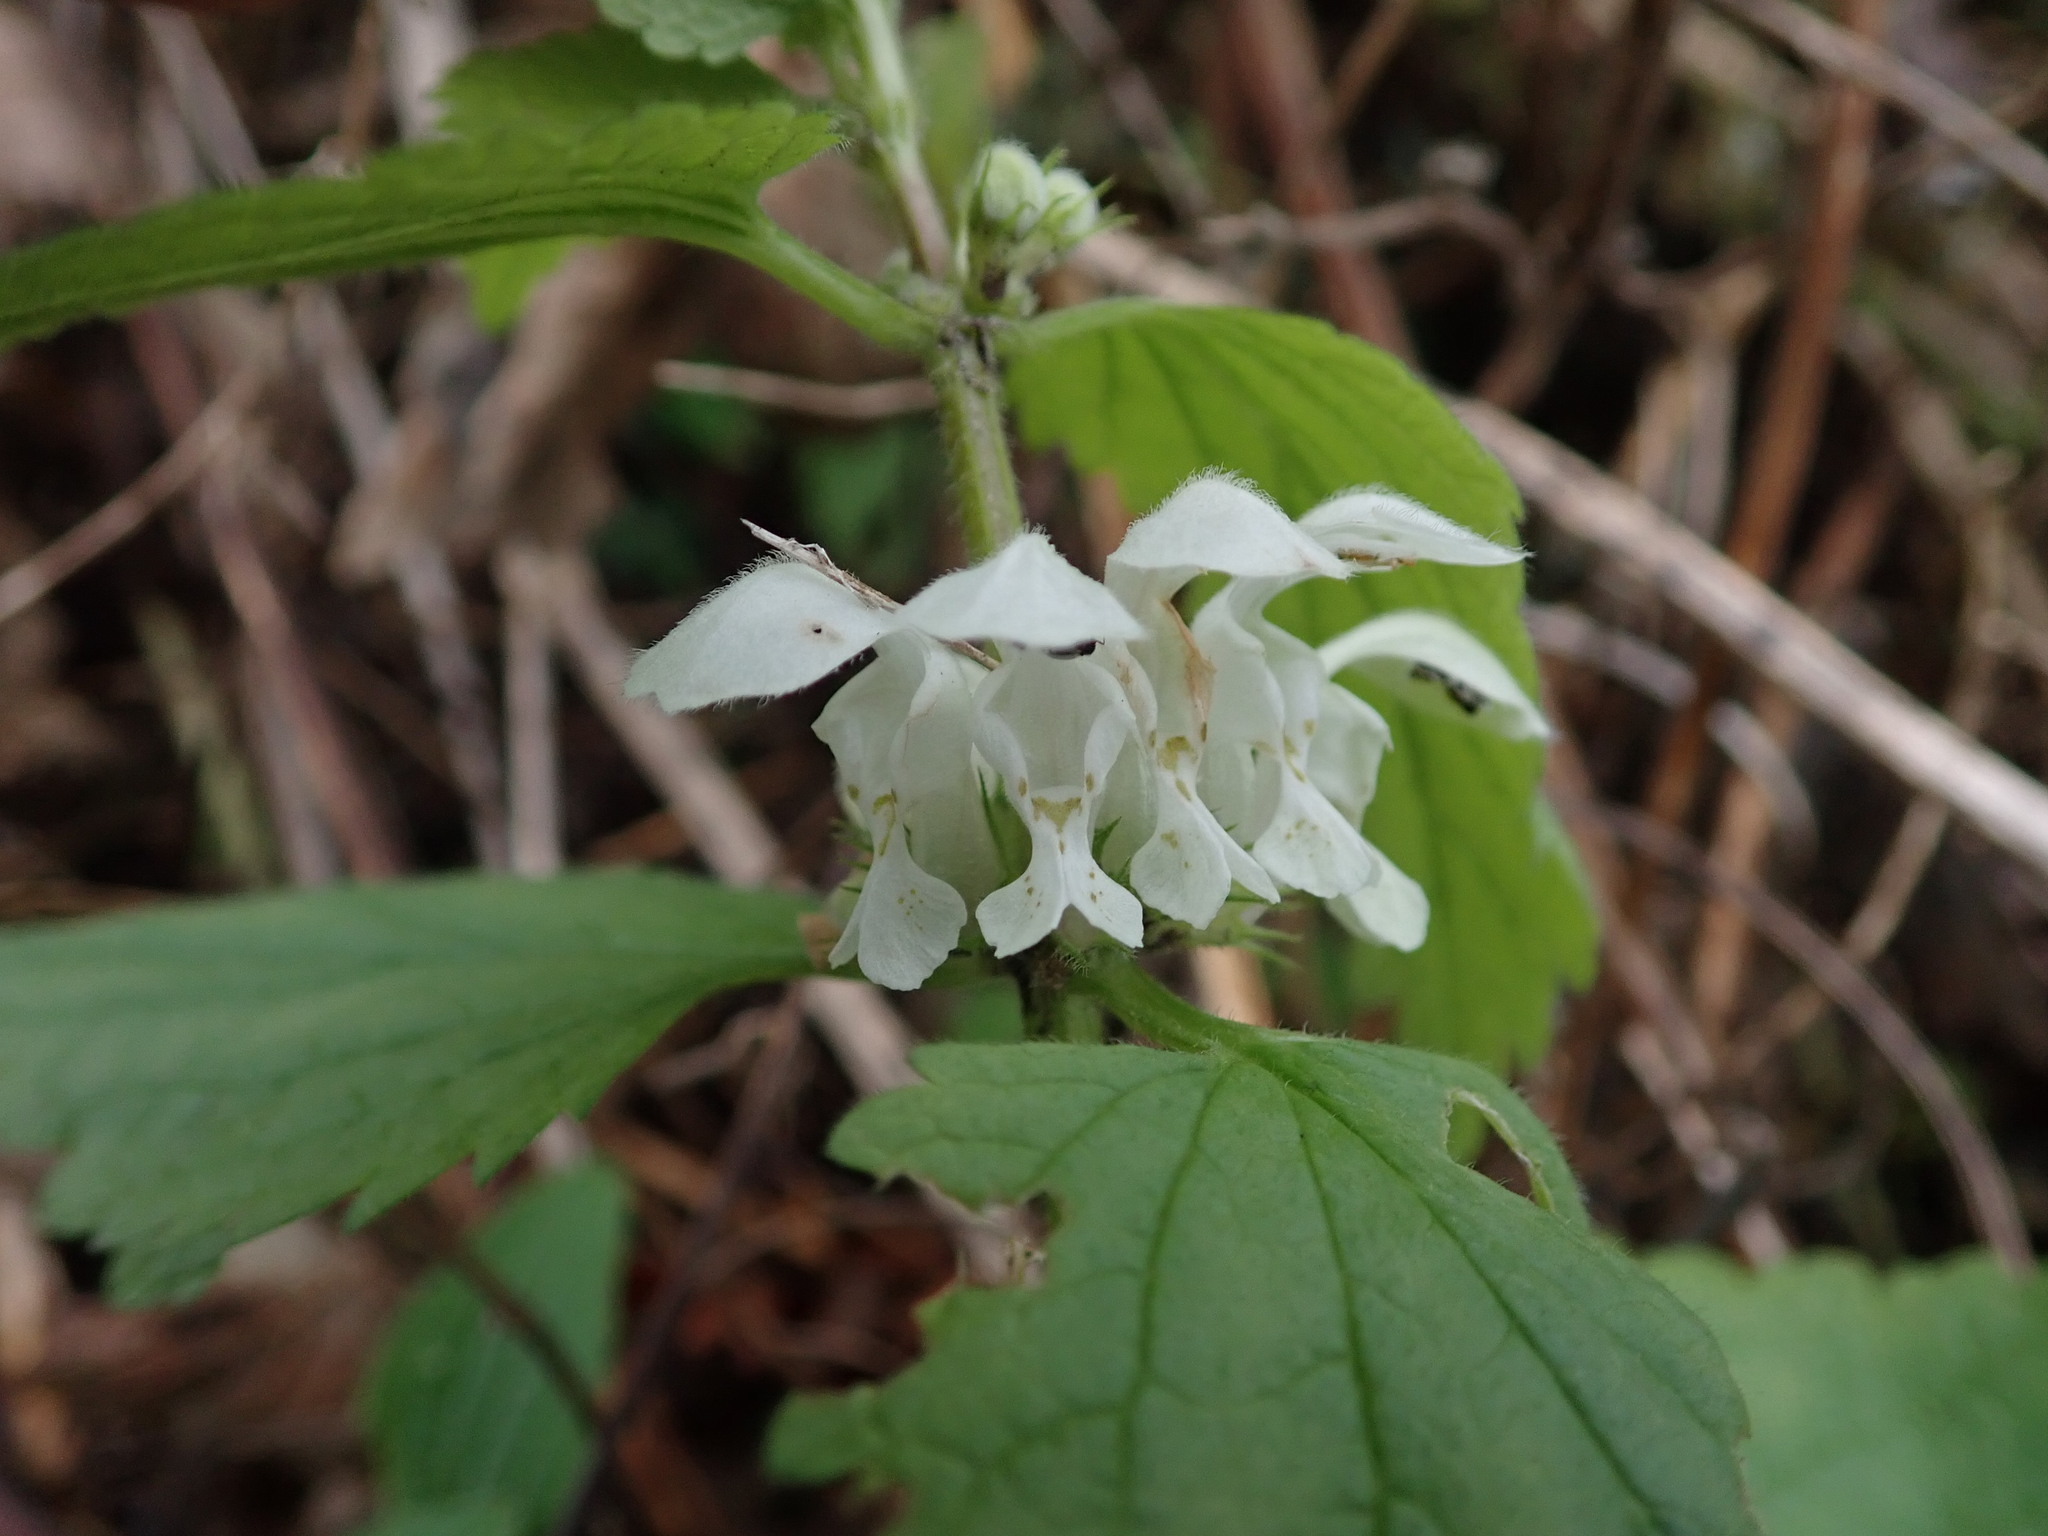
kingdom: Plantae
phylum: Tracheophyta
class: Magnoliopsida
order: Lamiales
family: Lamiaceae
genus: Lamium
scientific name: Lamium album
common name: White dead-nettle
